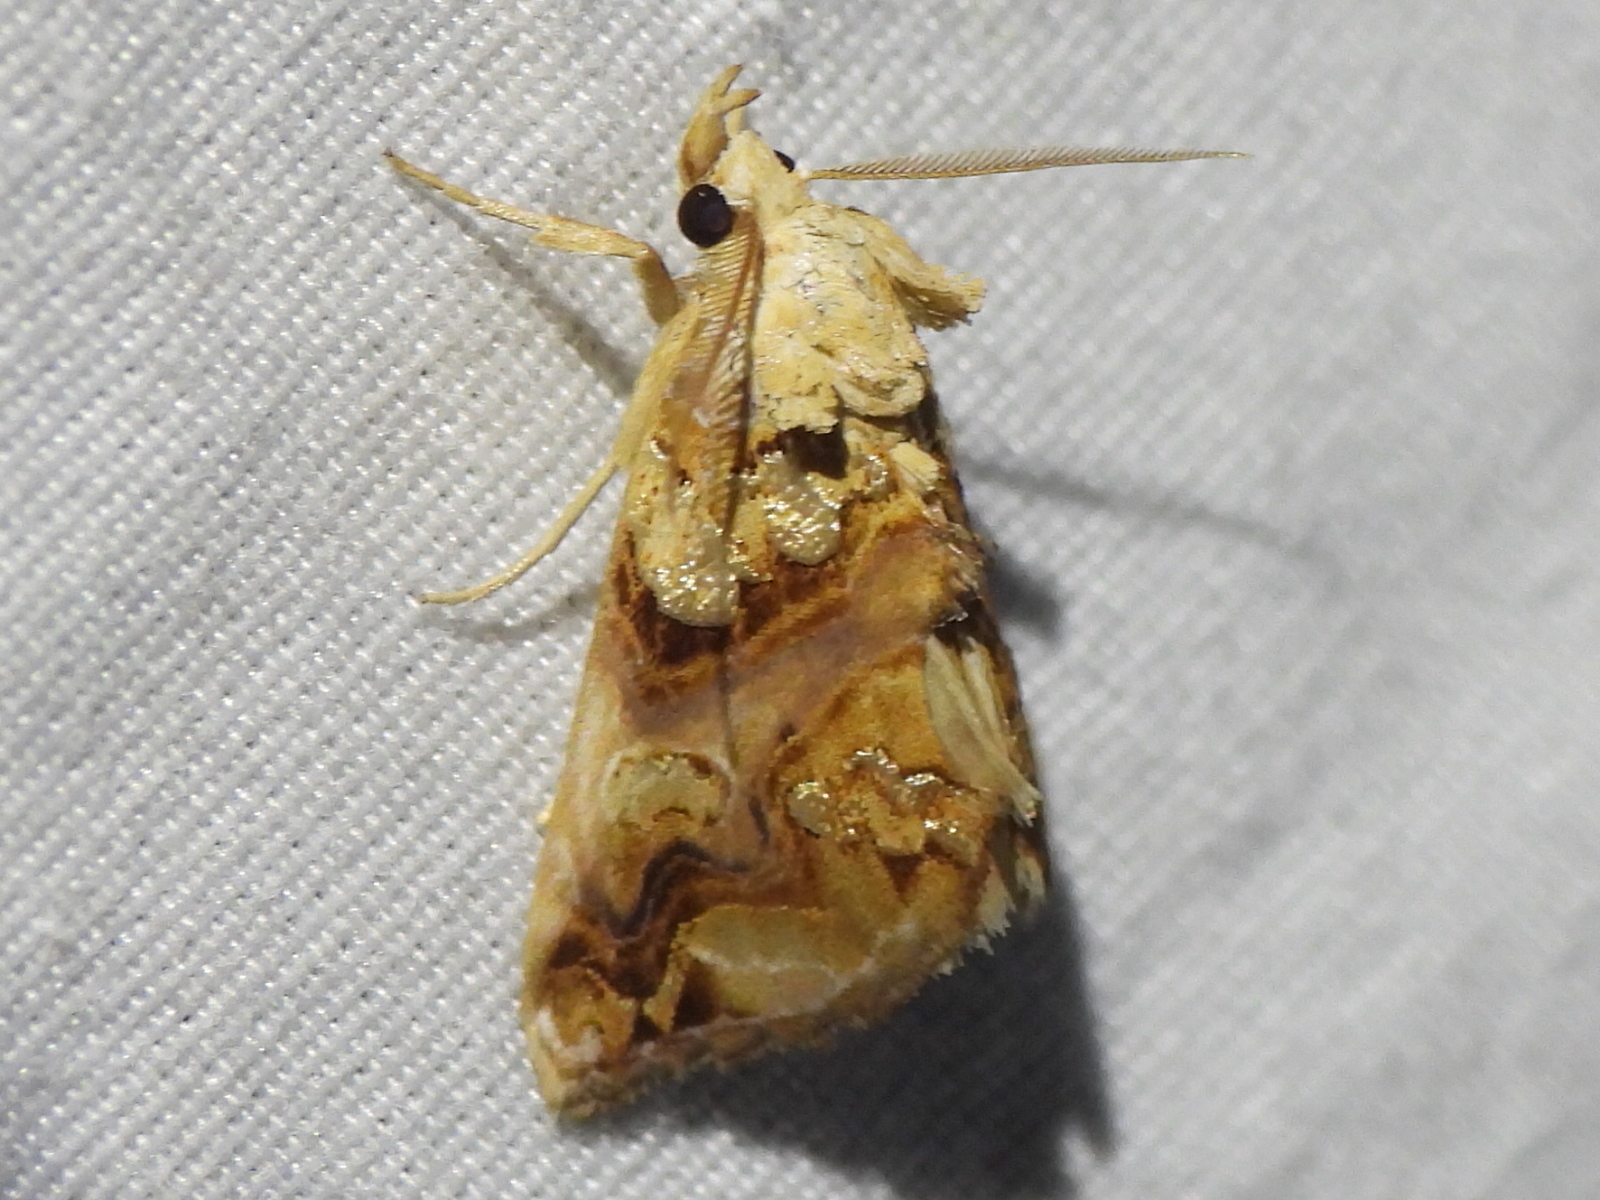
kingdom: Animalia
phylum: Arthropoda
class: Insecta
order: Lepidoptera
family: Erebidae
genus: Plusiodonta
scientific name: Plusiodonta compressipalpis
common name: Moonseed moth
